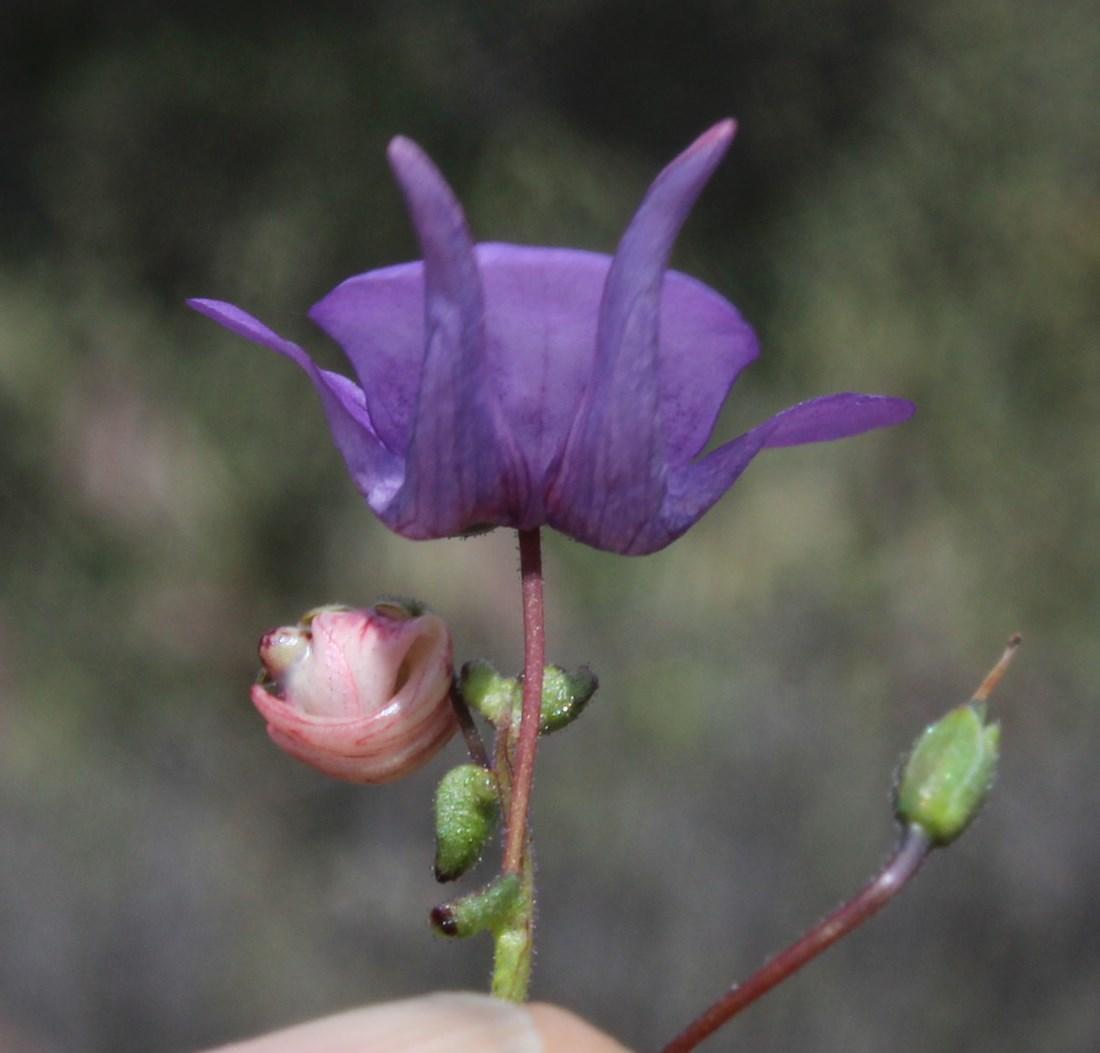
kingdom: Plantae
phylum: Tracheophyta
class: Magnoliopsida
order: Lamiales
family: Scrophulariaceae
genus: Diascia
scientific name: Diascia macrophylla
